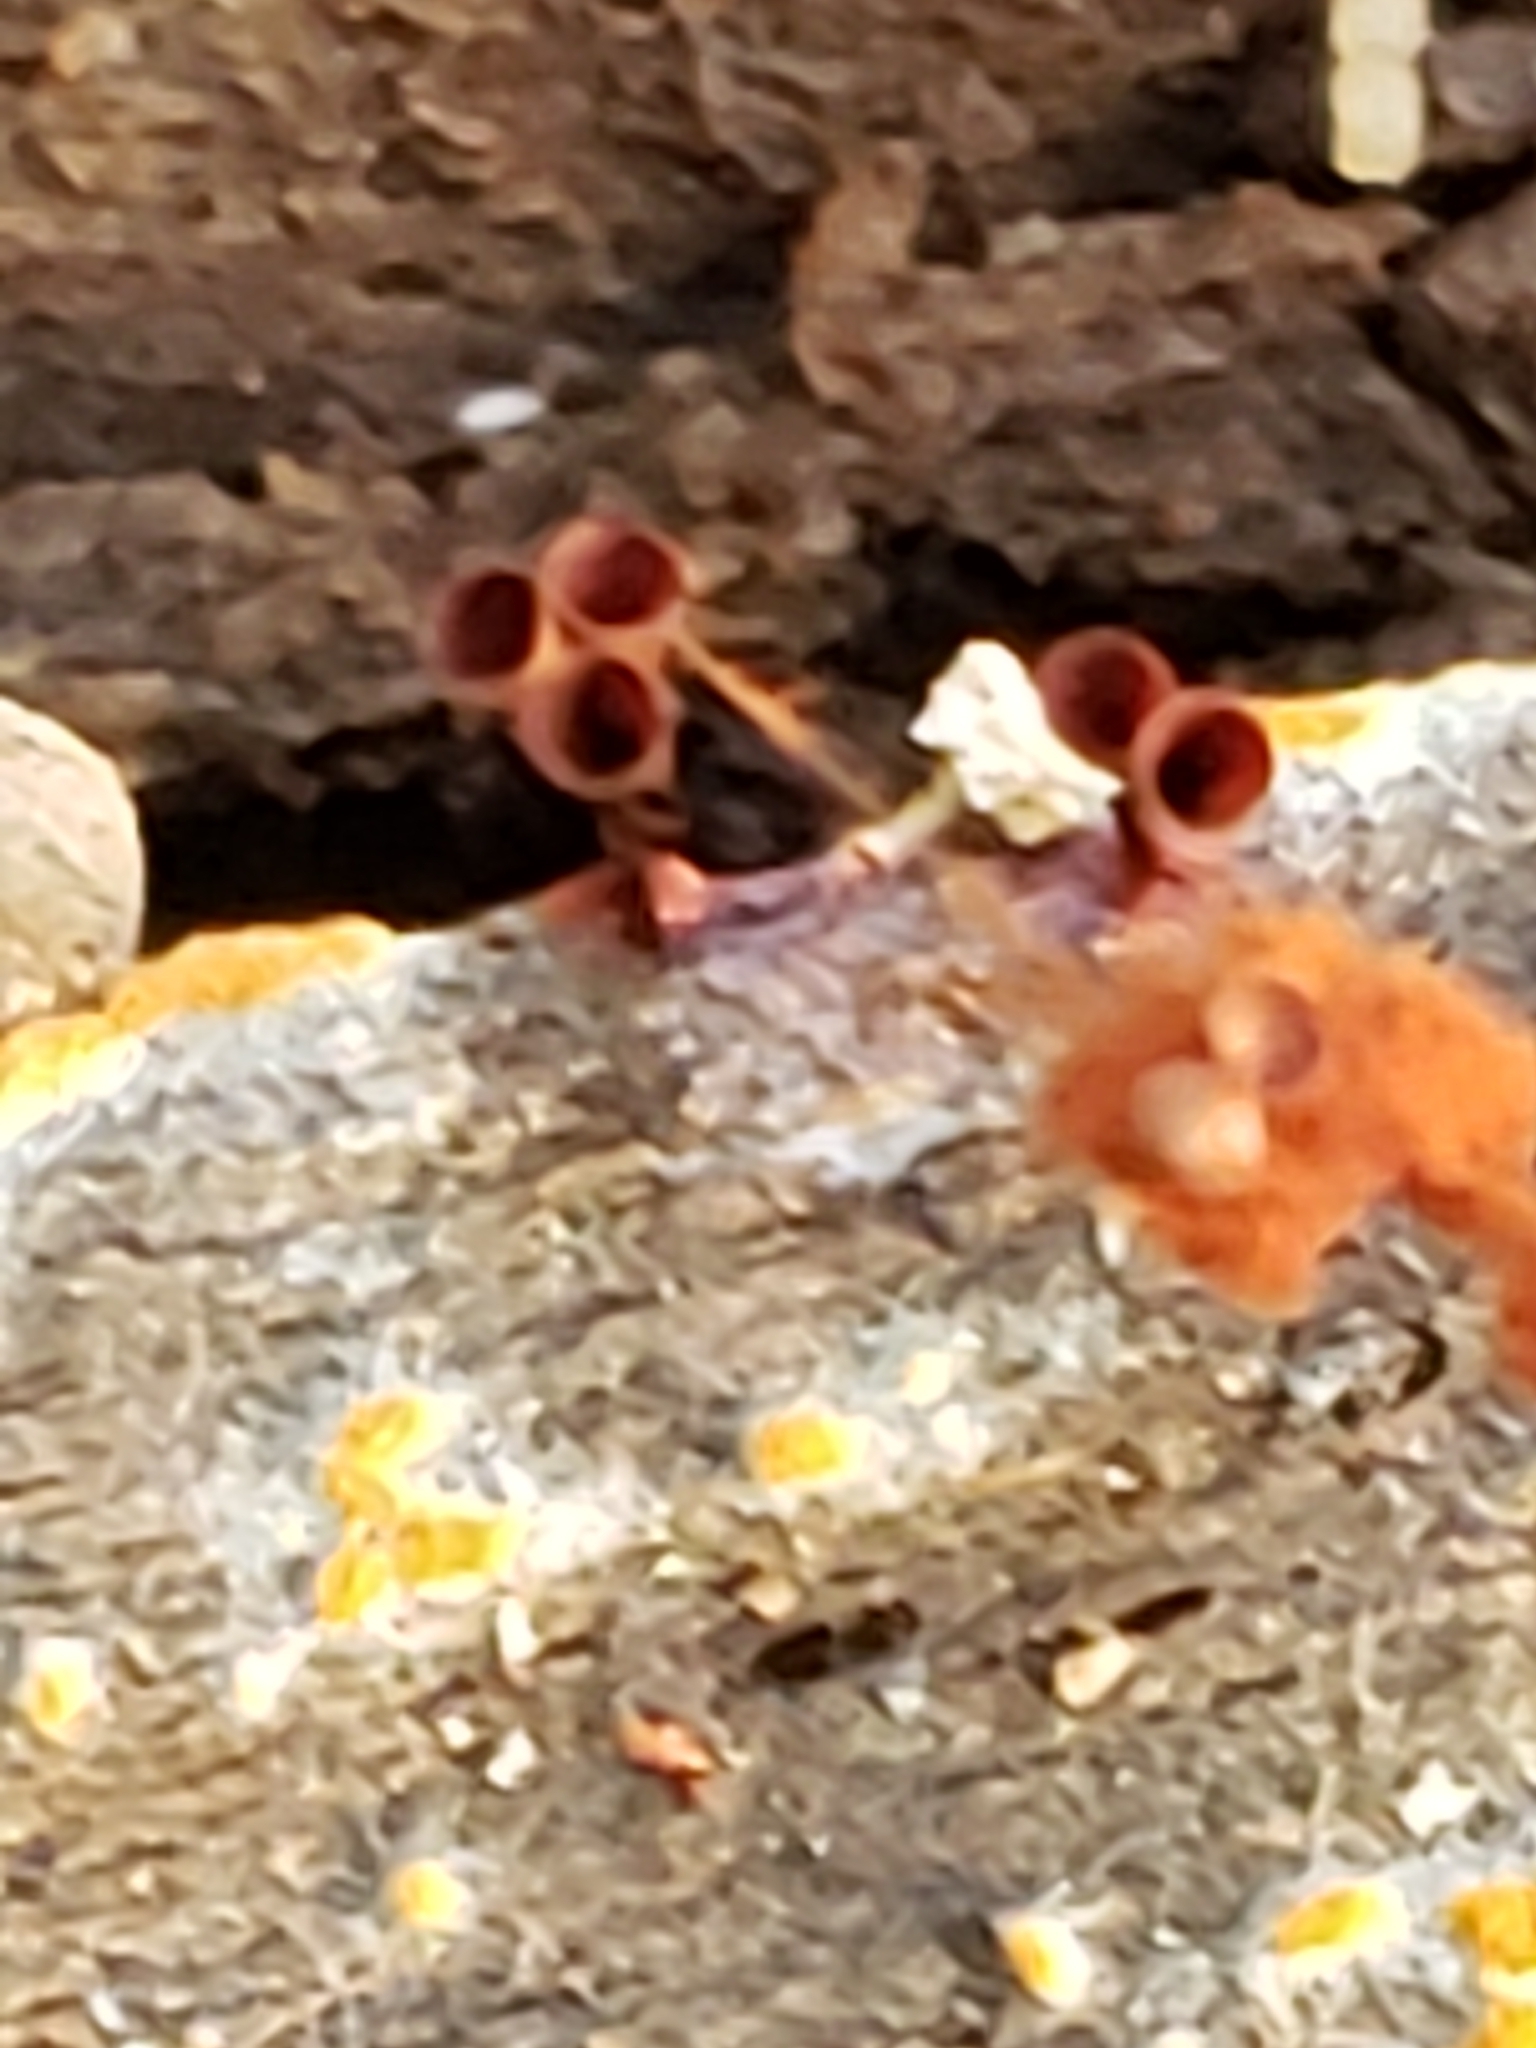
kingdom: Protozoa
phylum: Mycetozoa
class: Myxomycetes
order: Trichiales
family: Trichiaceae
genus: Metatrichia
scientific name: Metatrichia vesparia
